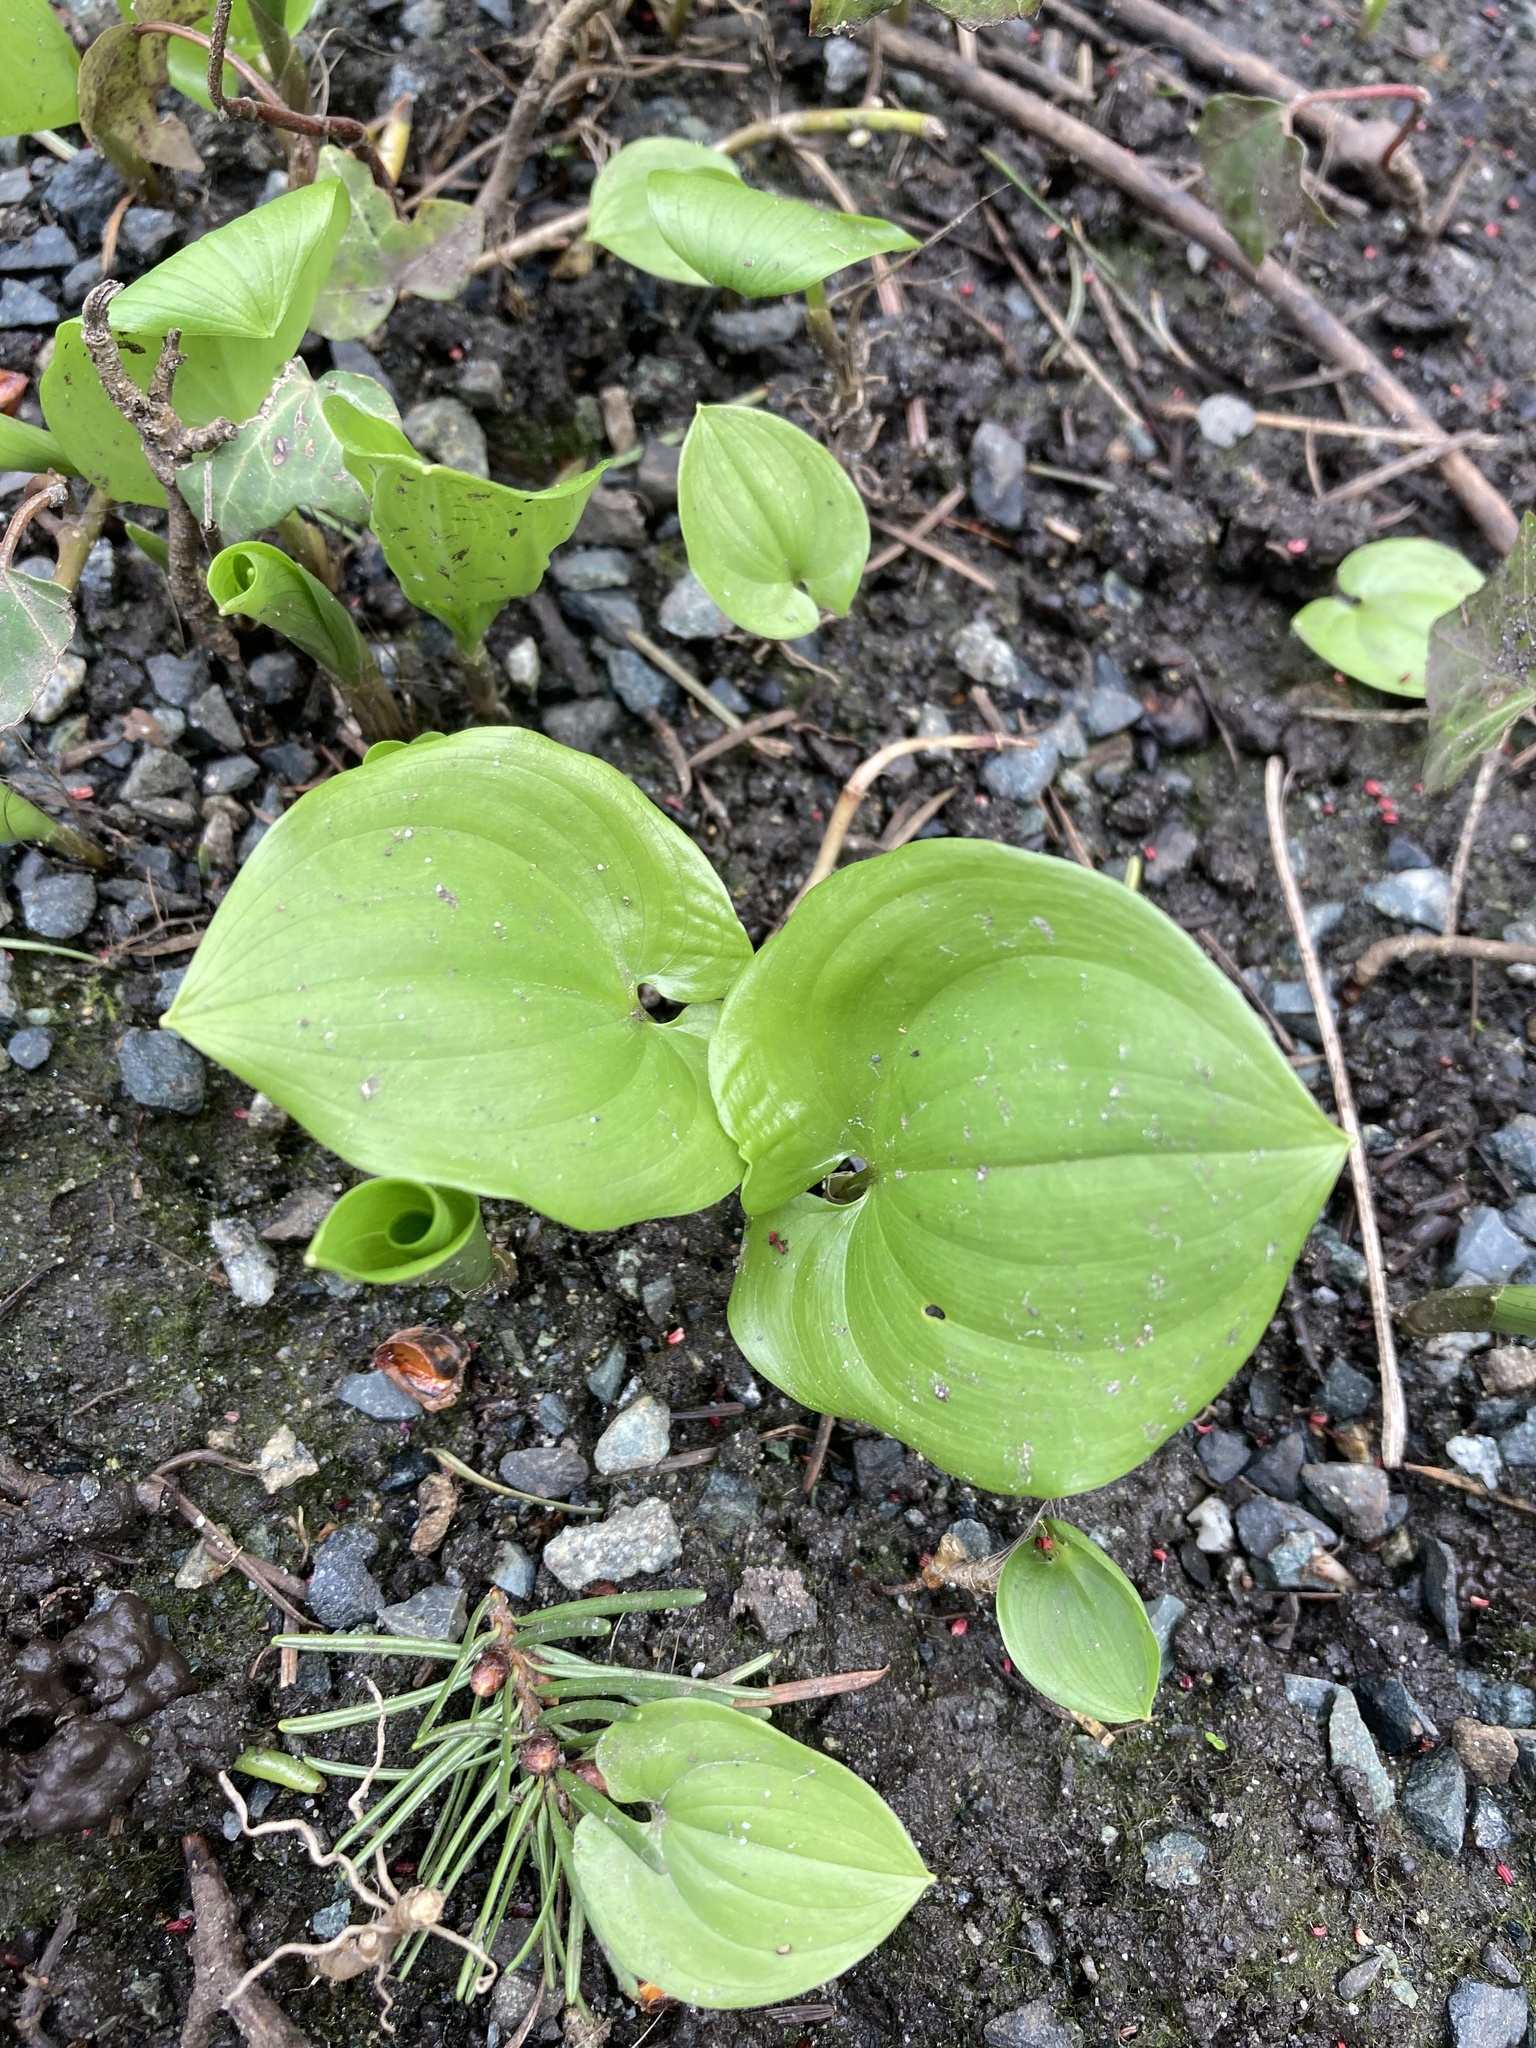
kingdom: Plantae
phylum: Tracheophyta
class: Liliopsida
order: Asparagales
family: Asparagaceae
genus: Maianthemum
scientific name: Maianthemum dilatatum
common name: False lily-of-the-valley
